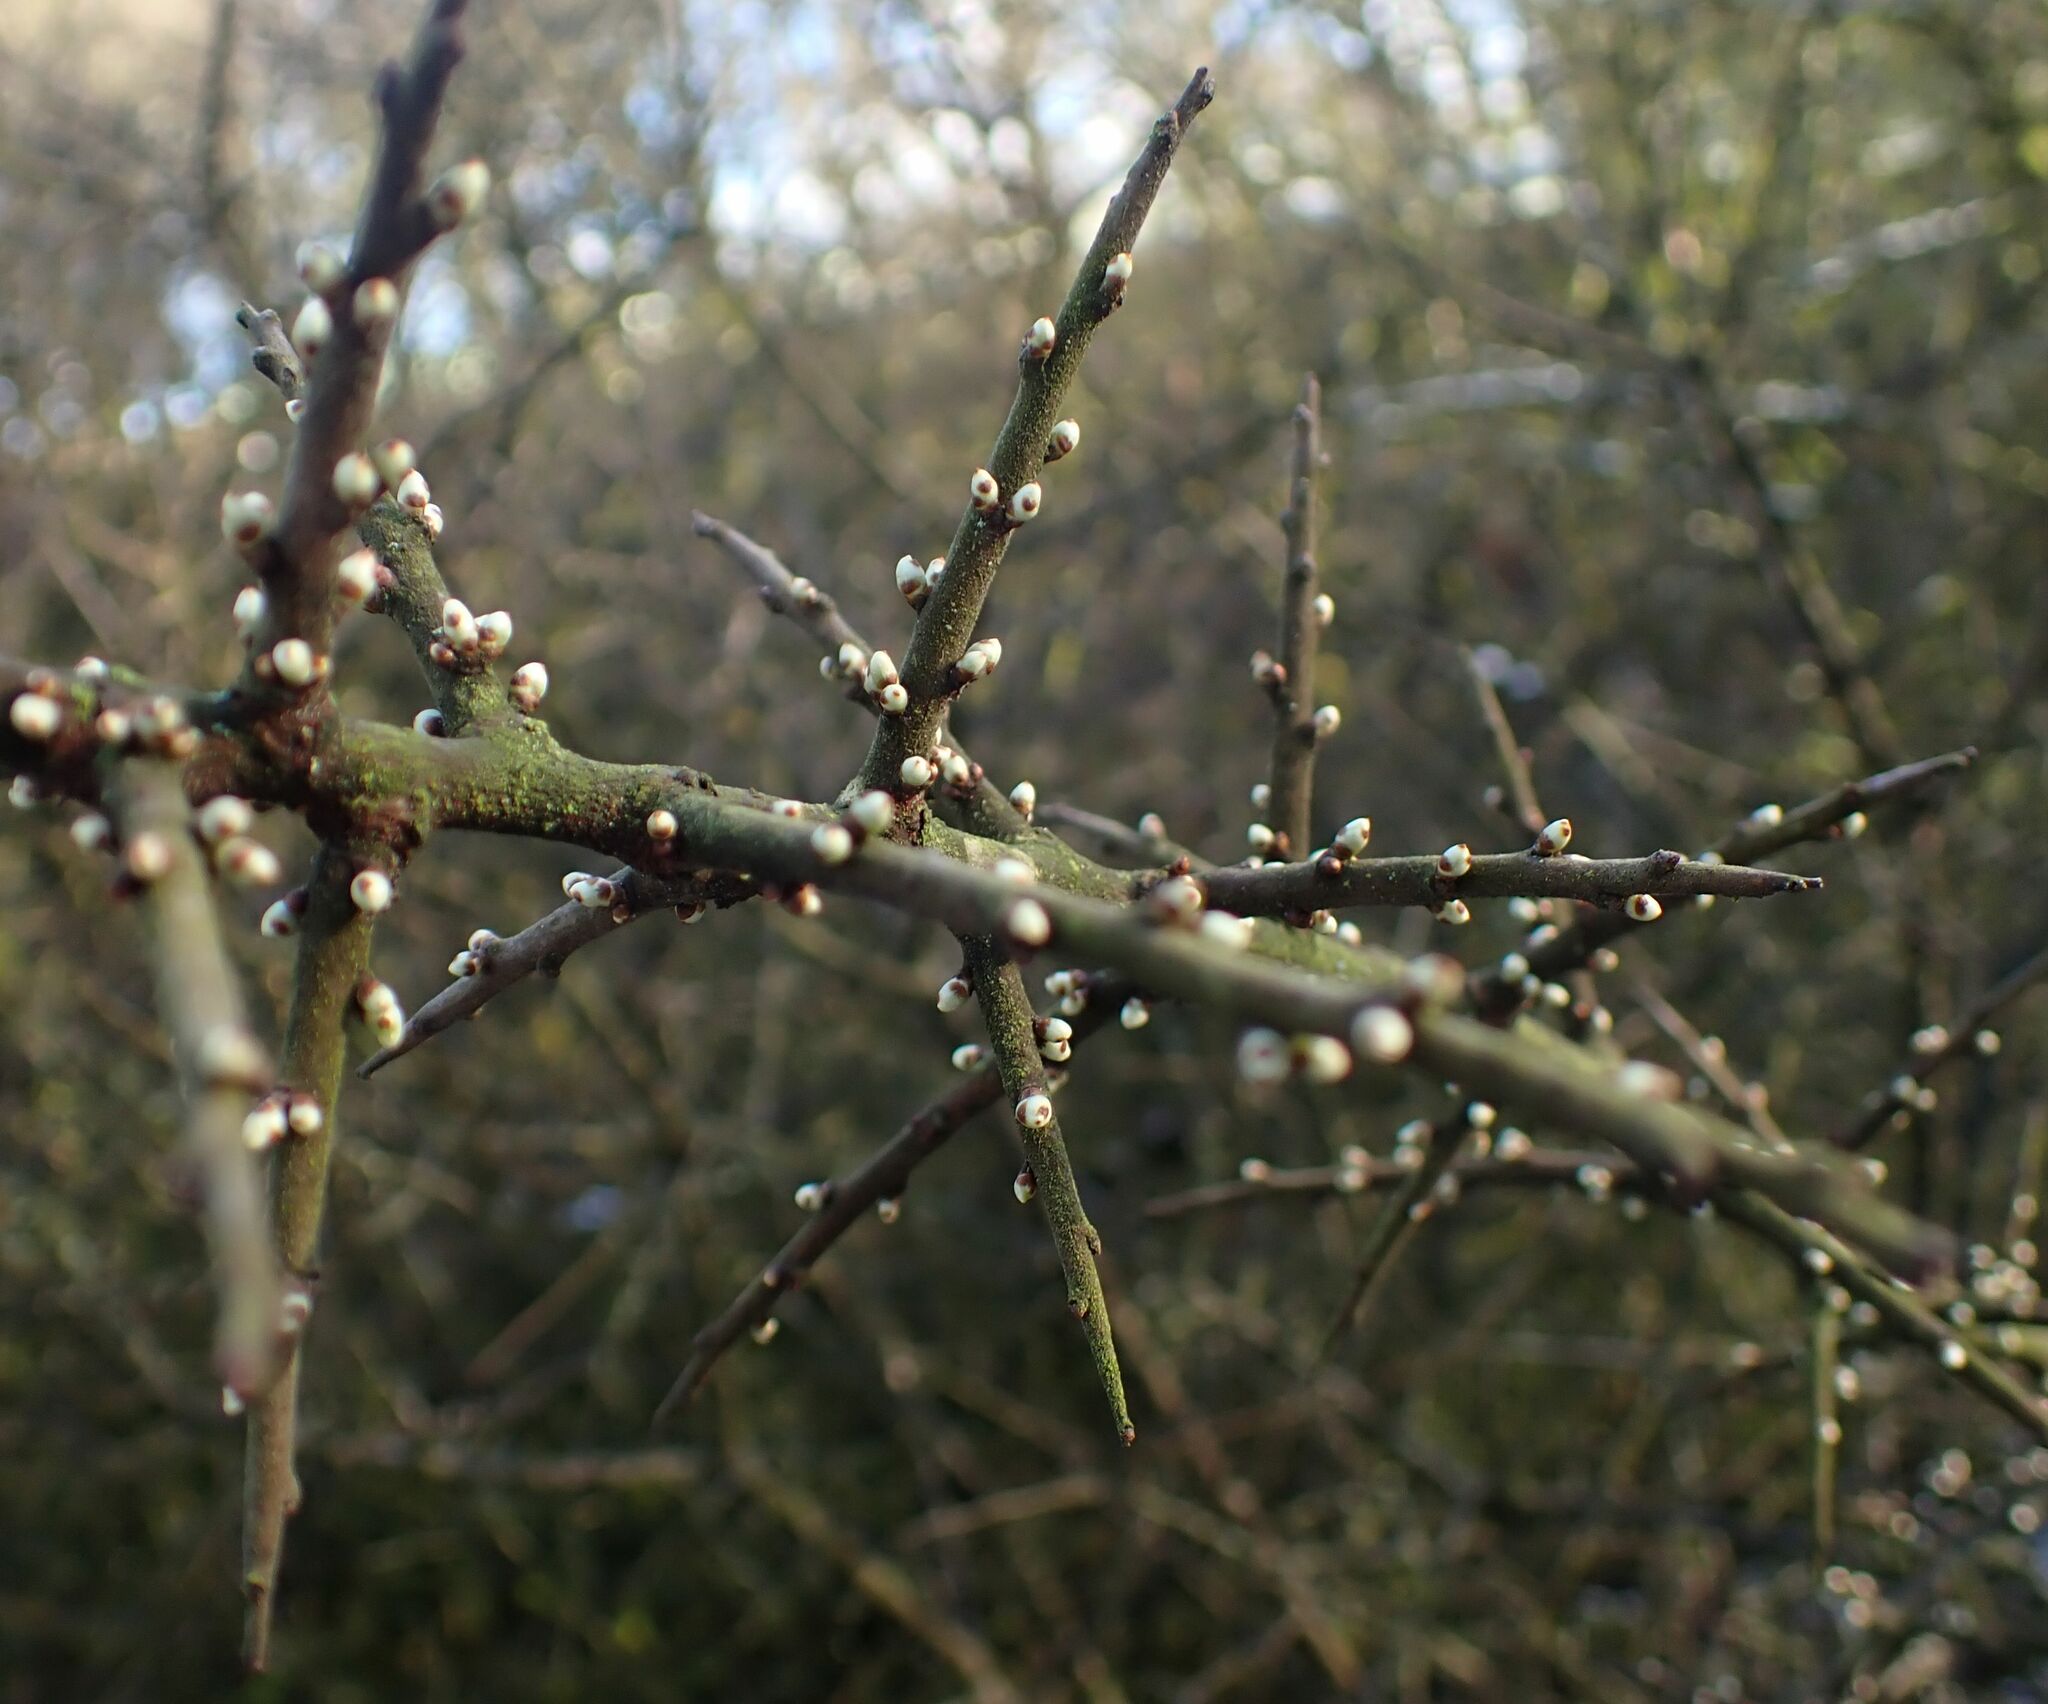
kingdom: Plantae
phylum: Tracheophyta
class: Magnoliopsida
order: Rosales
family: Rosaceae
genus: Prunus
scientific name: Prunus spinosa
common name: Blackthorn
